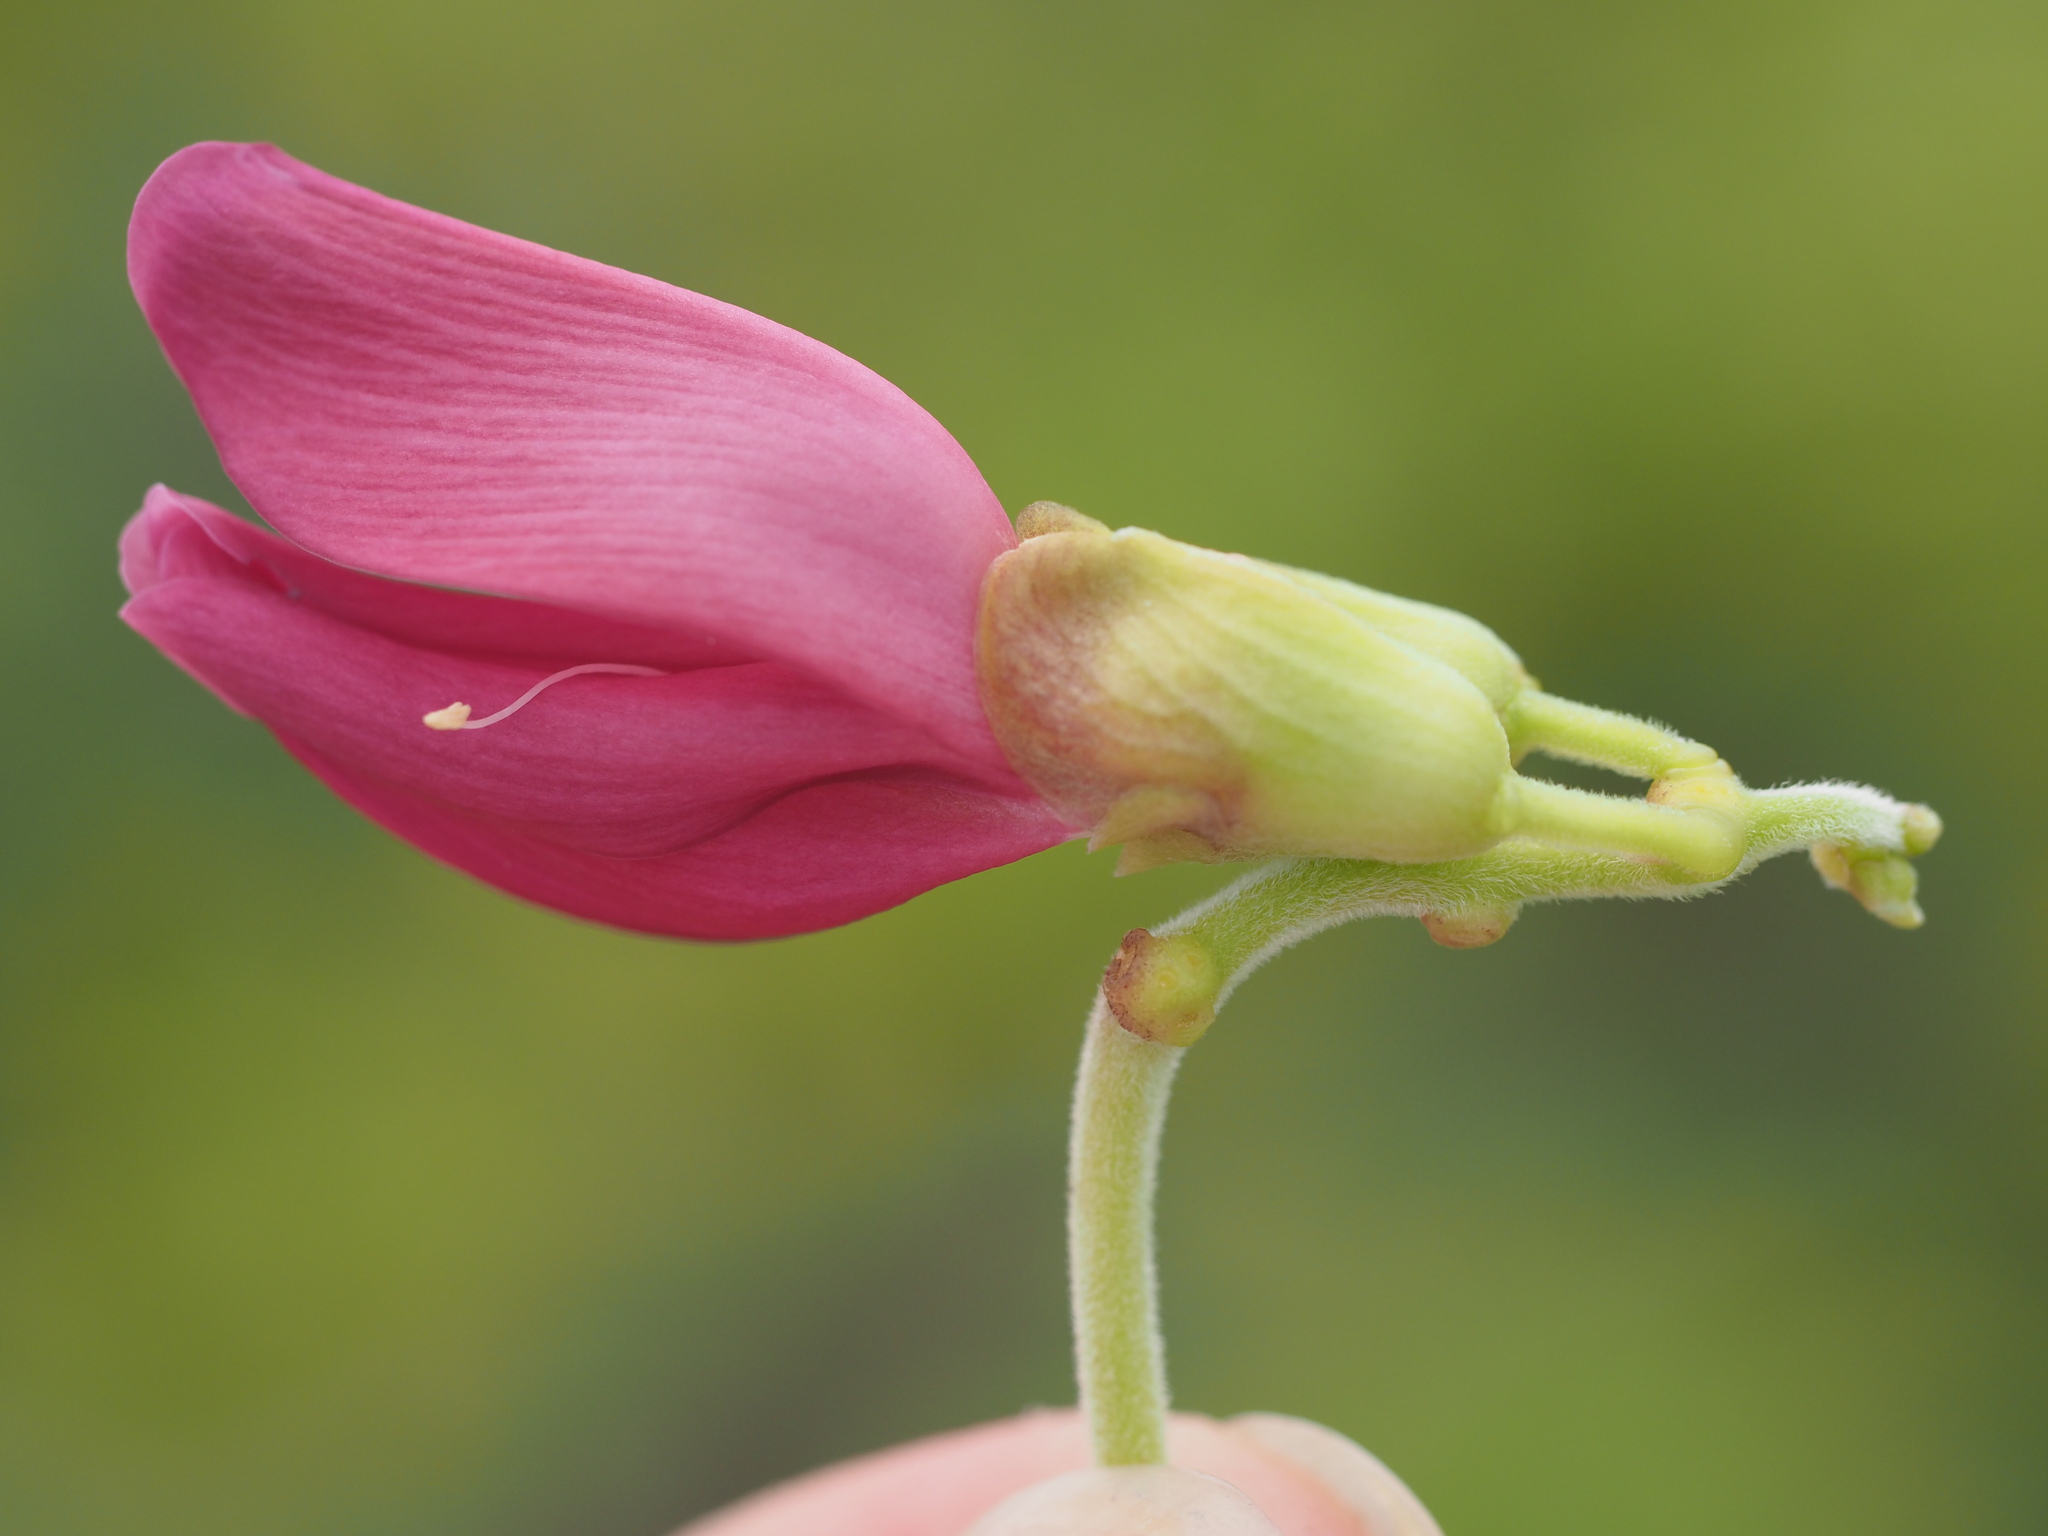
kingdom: Plantae
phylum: Tracheophyta
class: Magnoliopsida
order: Fabales
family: Fabaceae
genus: Canavalia
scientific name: Canavalia sericea
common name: Silky jackbean
